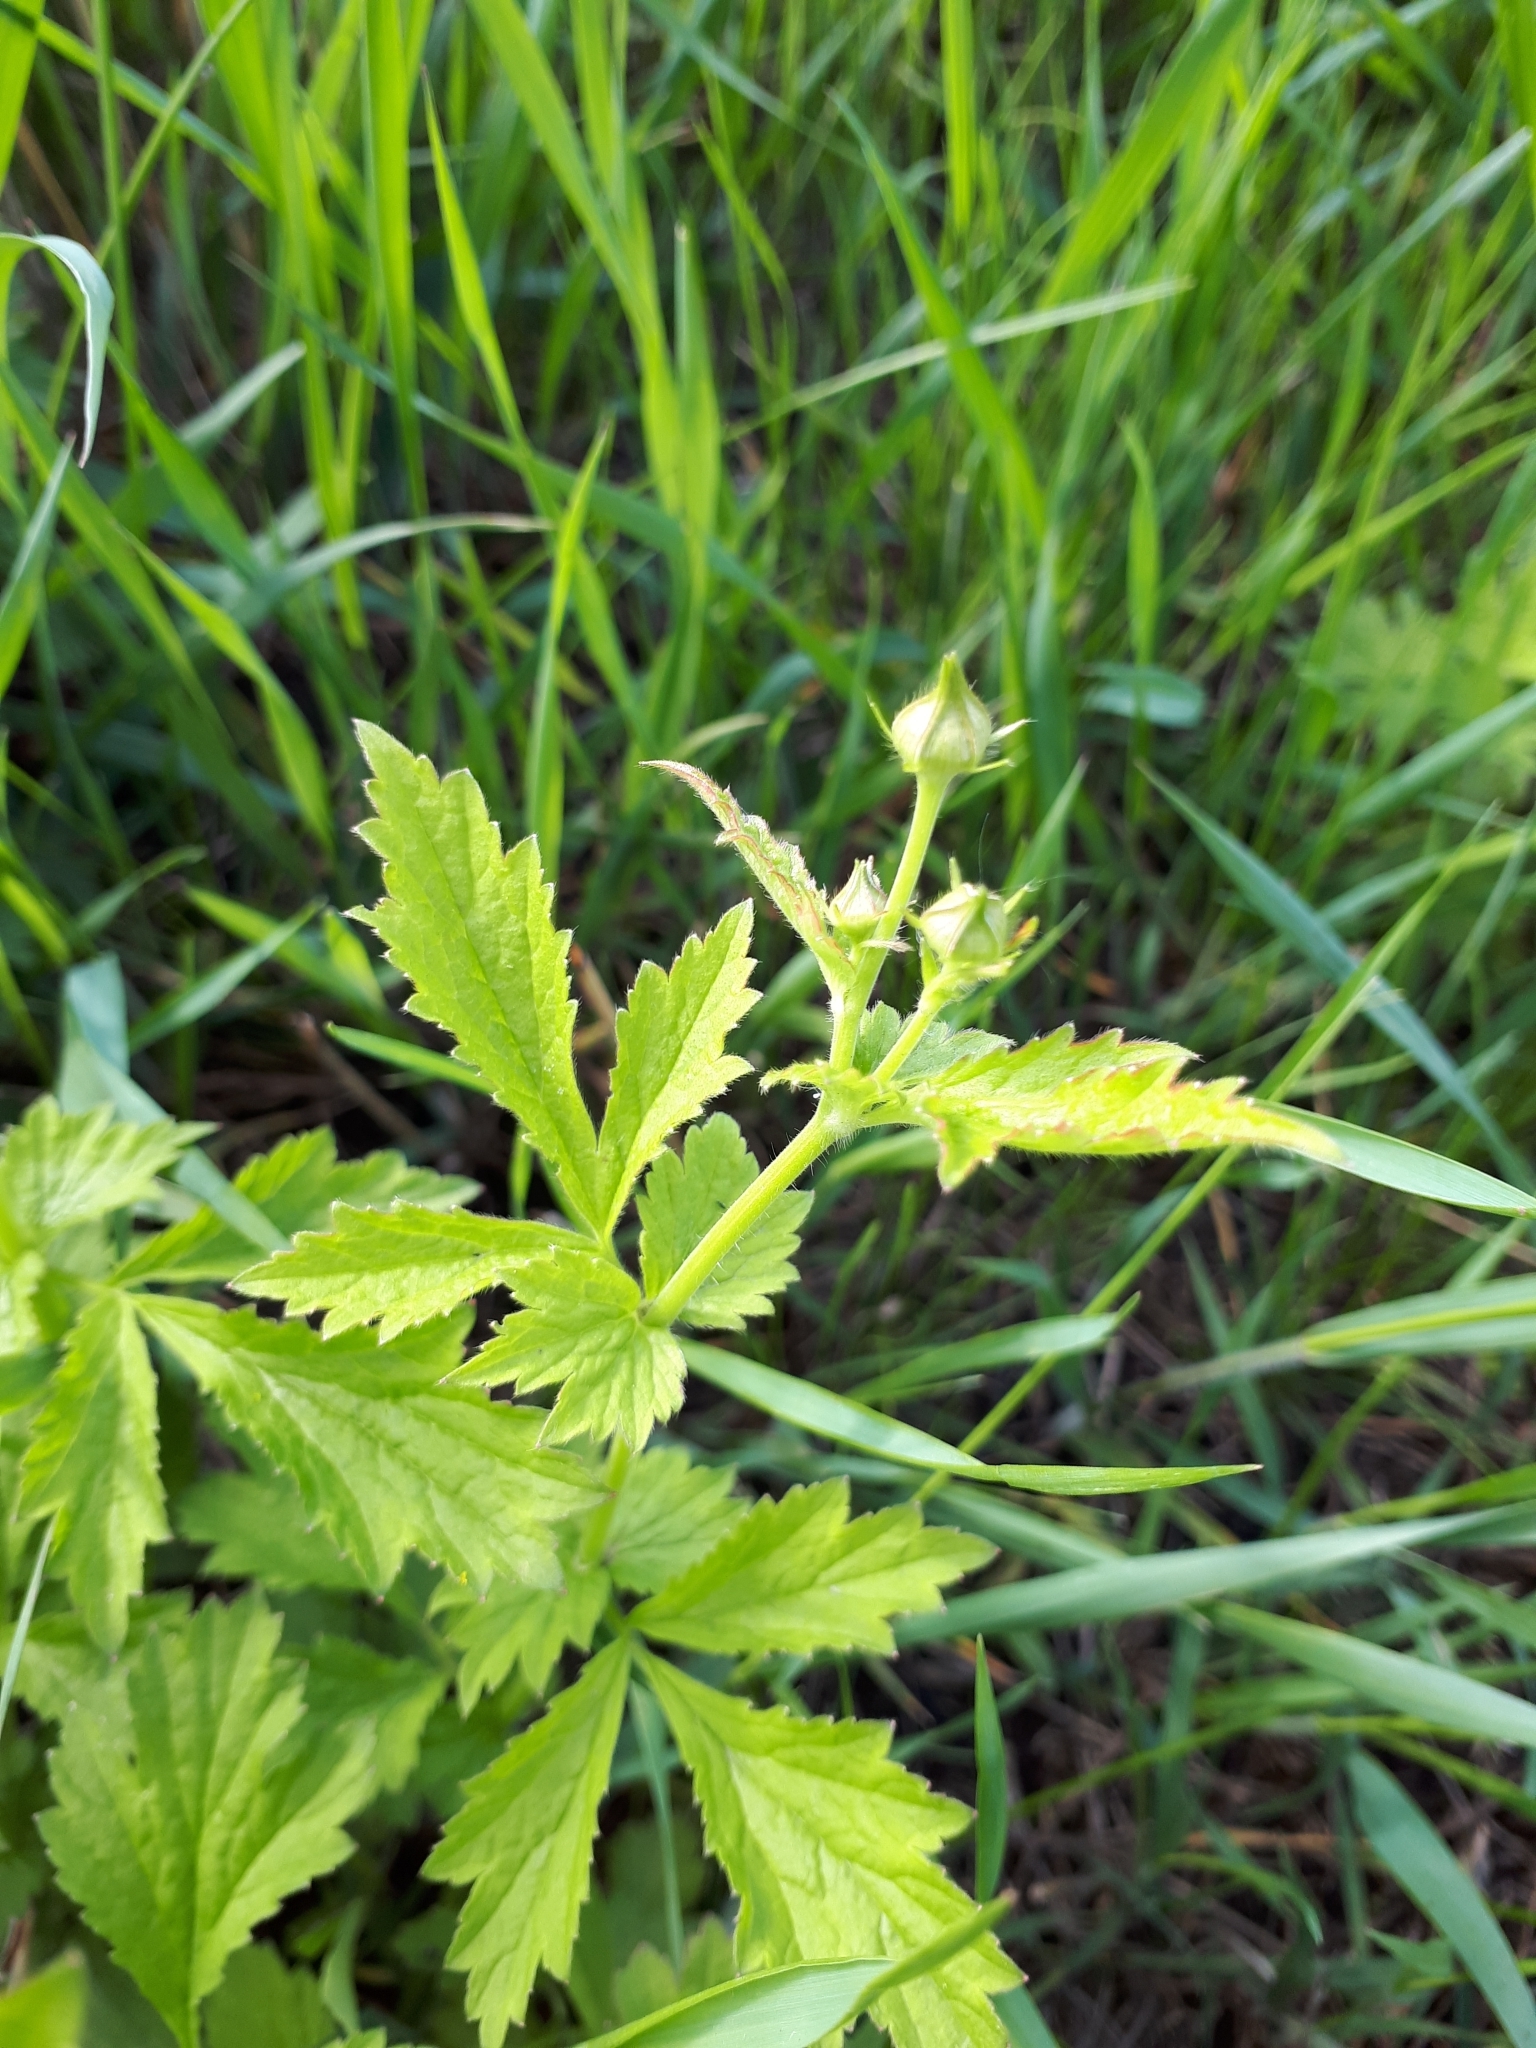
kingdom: Plantae
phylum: Tracheophyta
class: Magnoliopsida
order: Rosales
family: Rosaceae
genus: Geum
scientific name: Geum aleppicum
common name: Yellow avens
